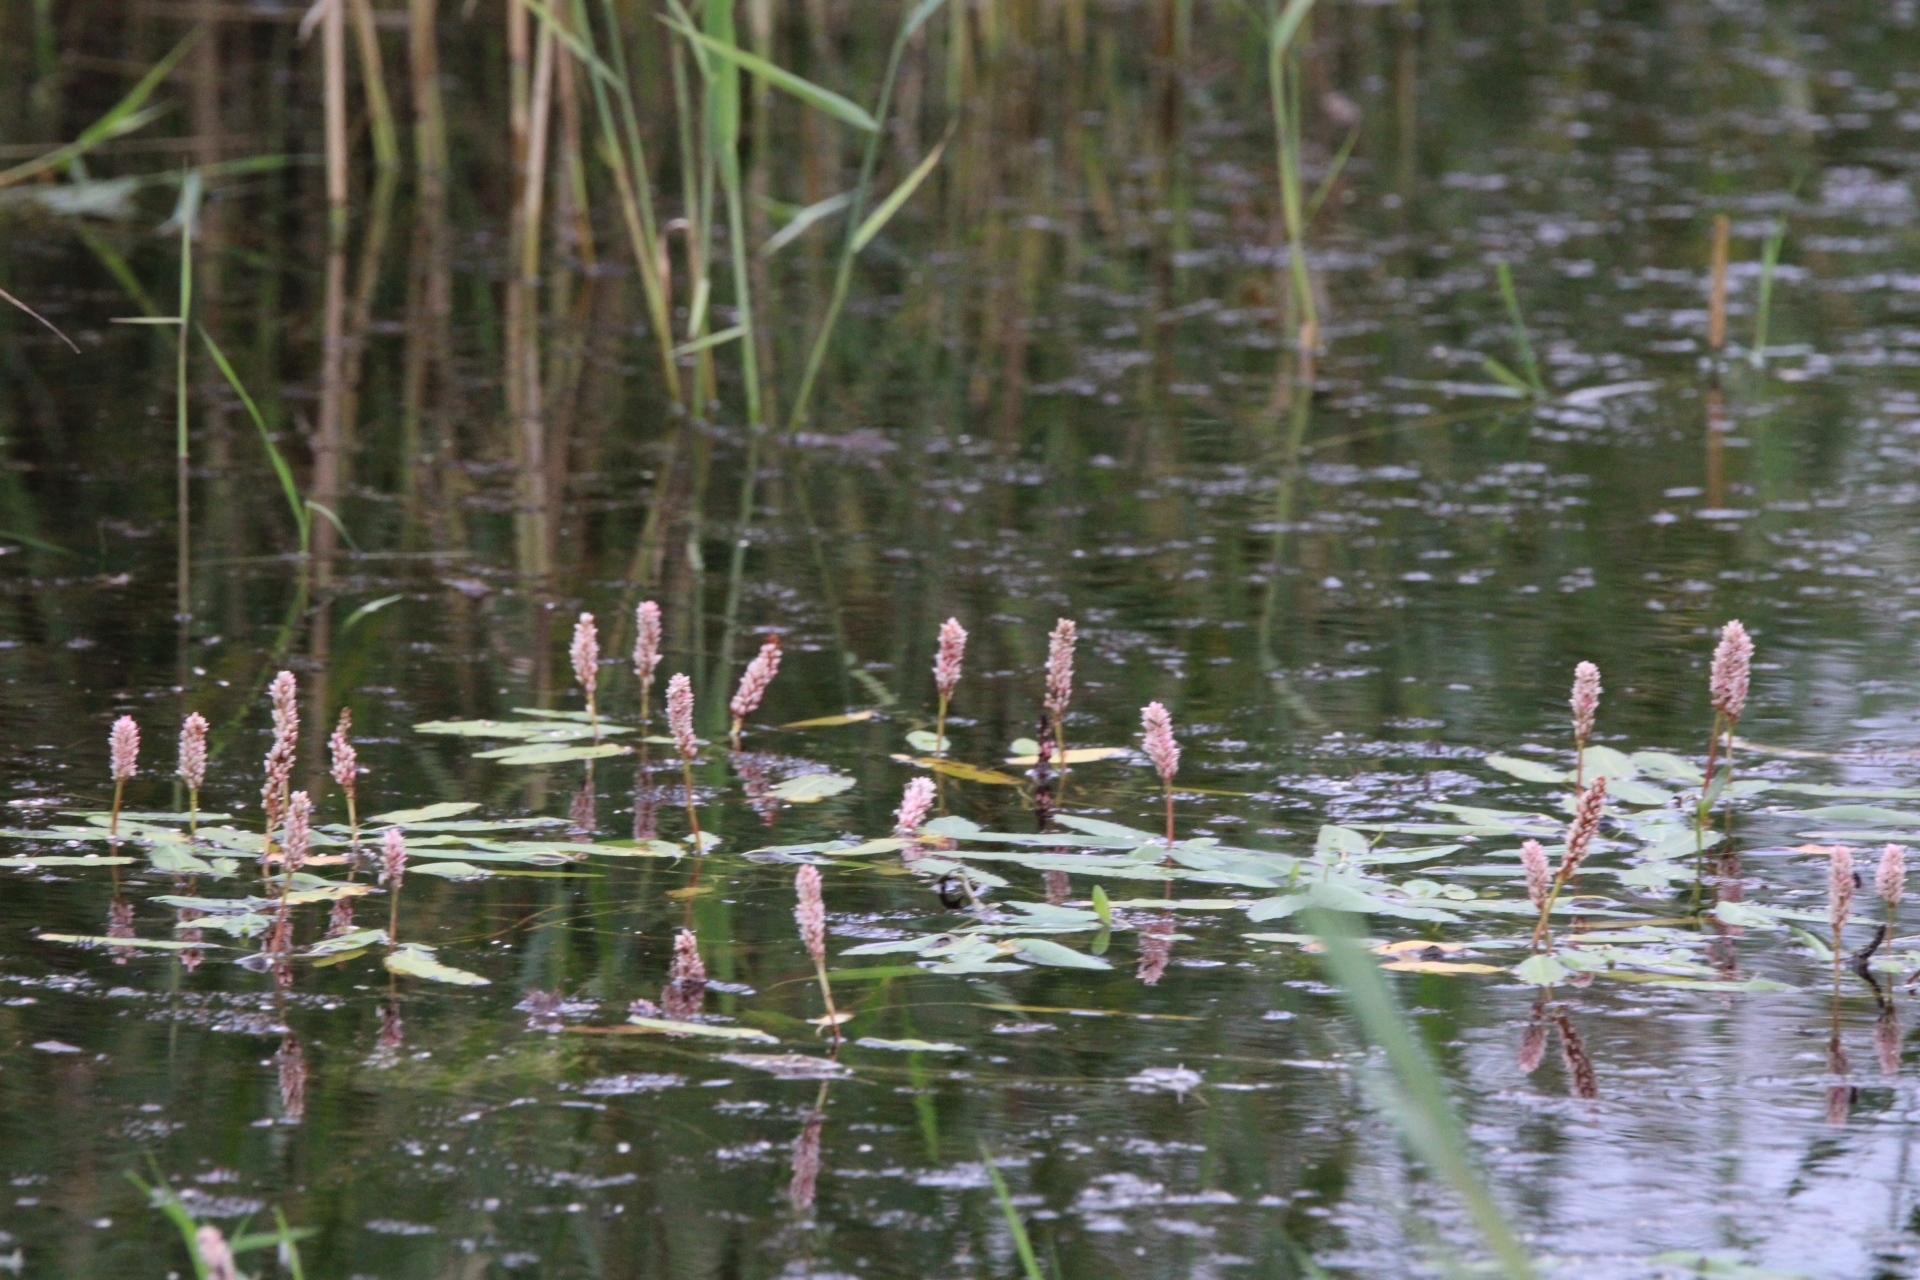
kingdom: Plantae
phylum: Tracheophyta
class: Magnoliopsida
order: Caryophyllales
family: Polygonaceae
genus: Persicaria
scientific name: Persicaria amphibia
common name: Amphibious bistort
